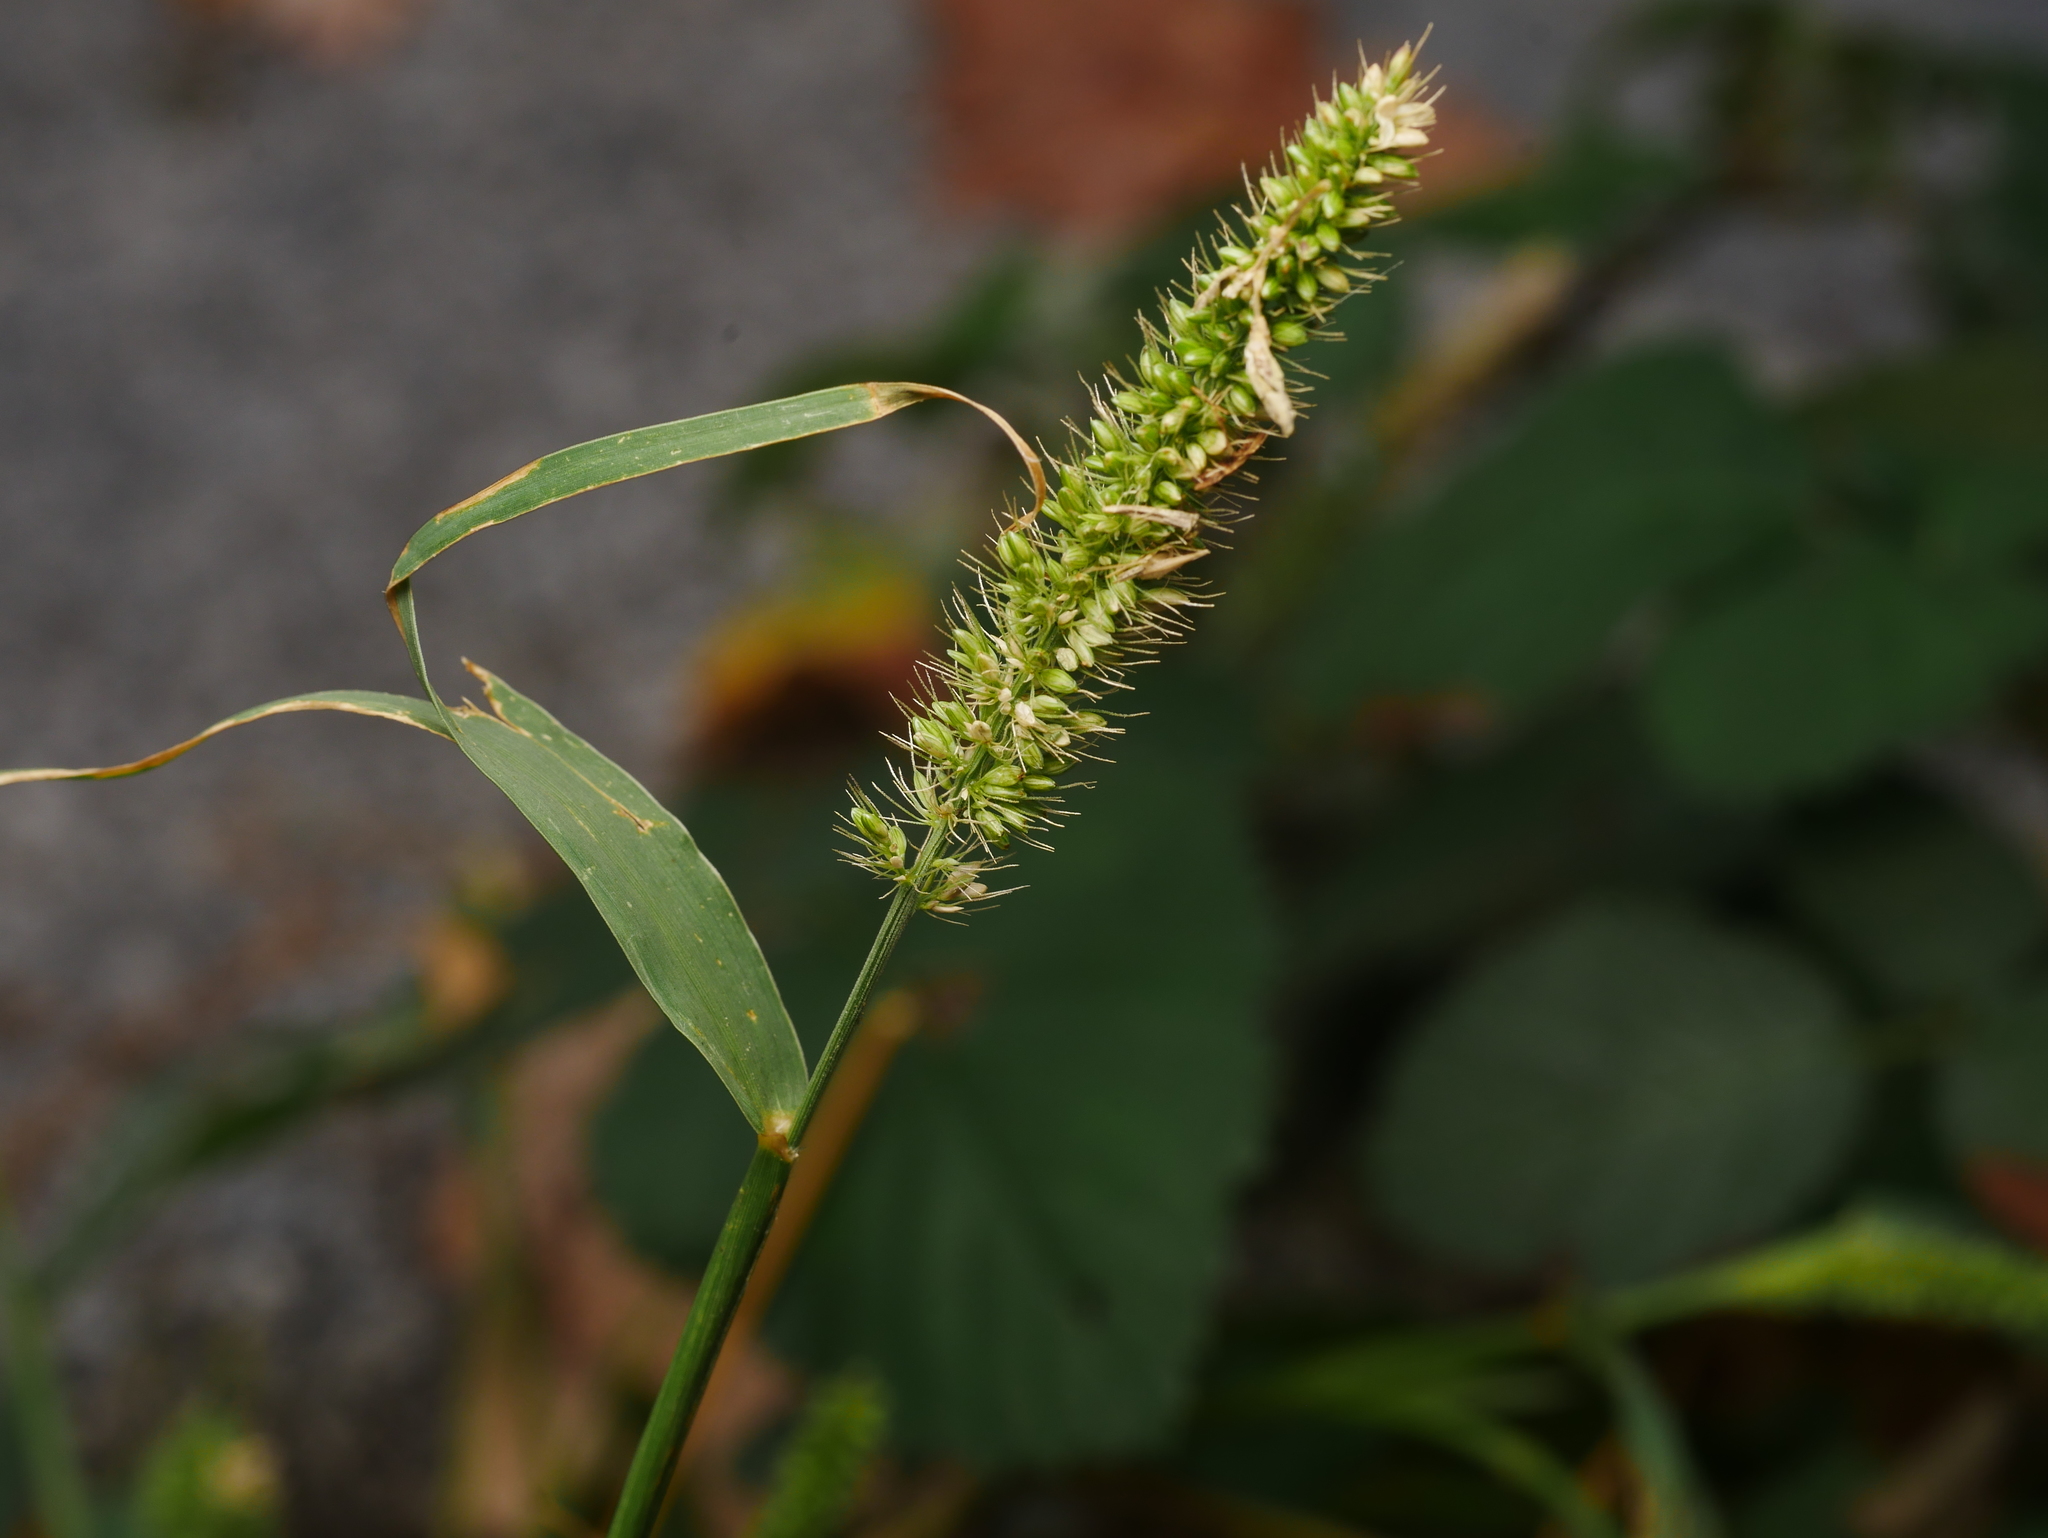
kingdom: Plantae
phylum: Tracheophyta
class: Liliopsida
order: Poales
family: Poaceae
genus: Setaria
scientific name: Setaria viridis
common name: Green bristlegrass
